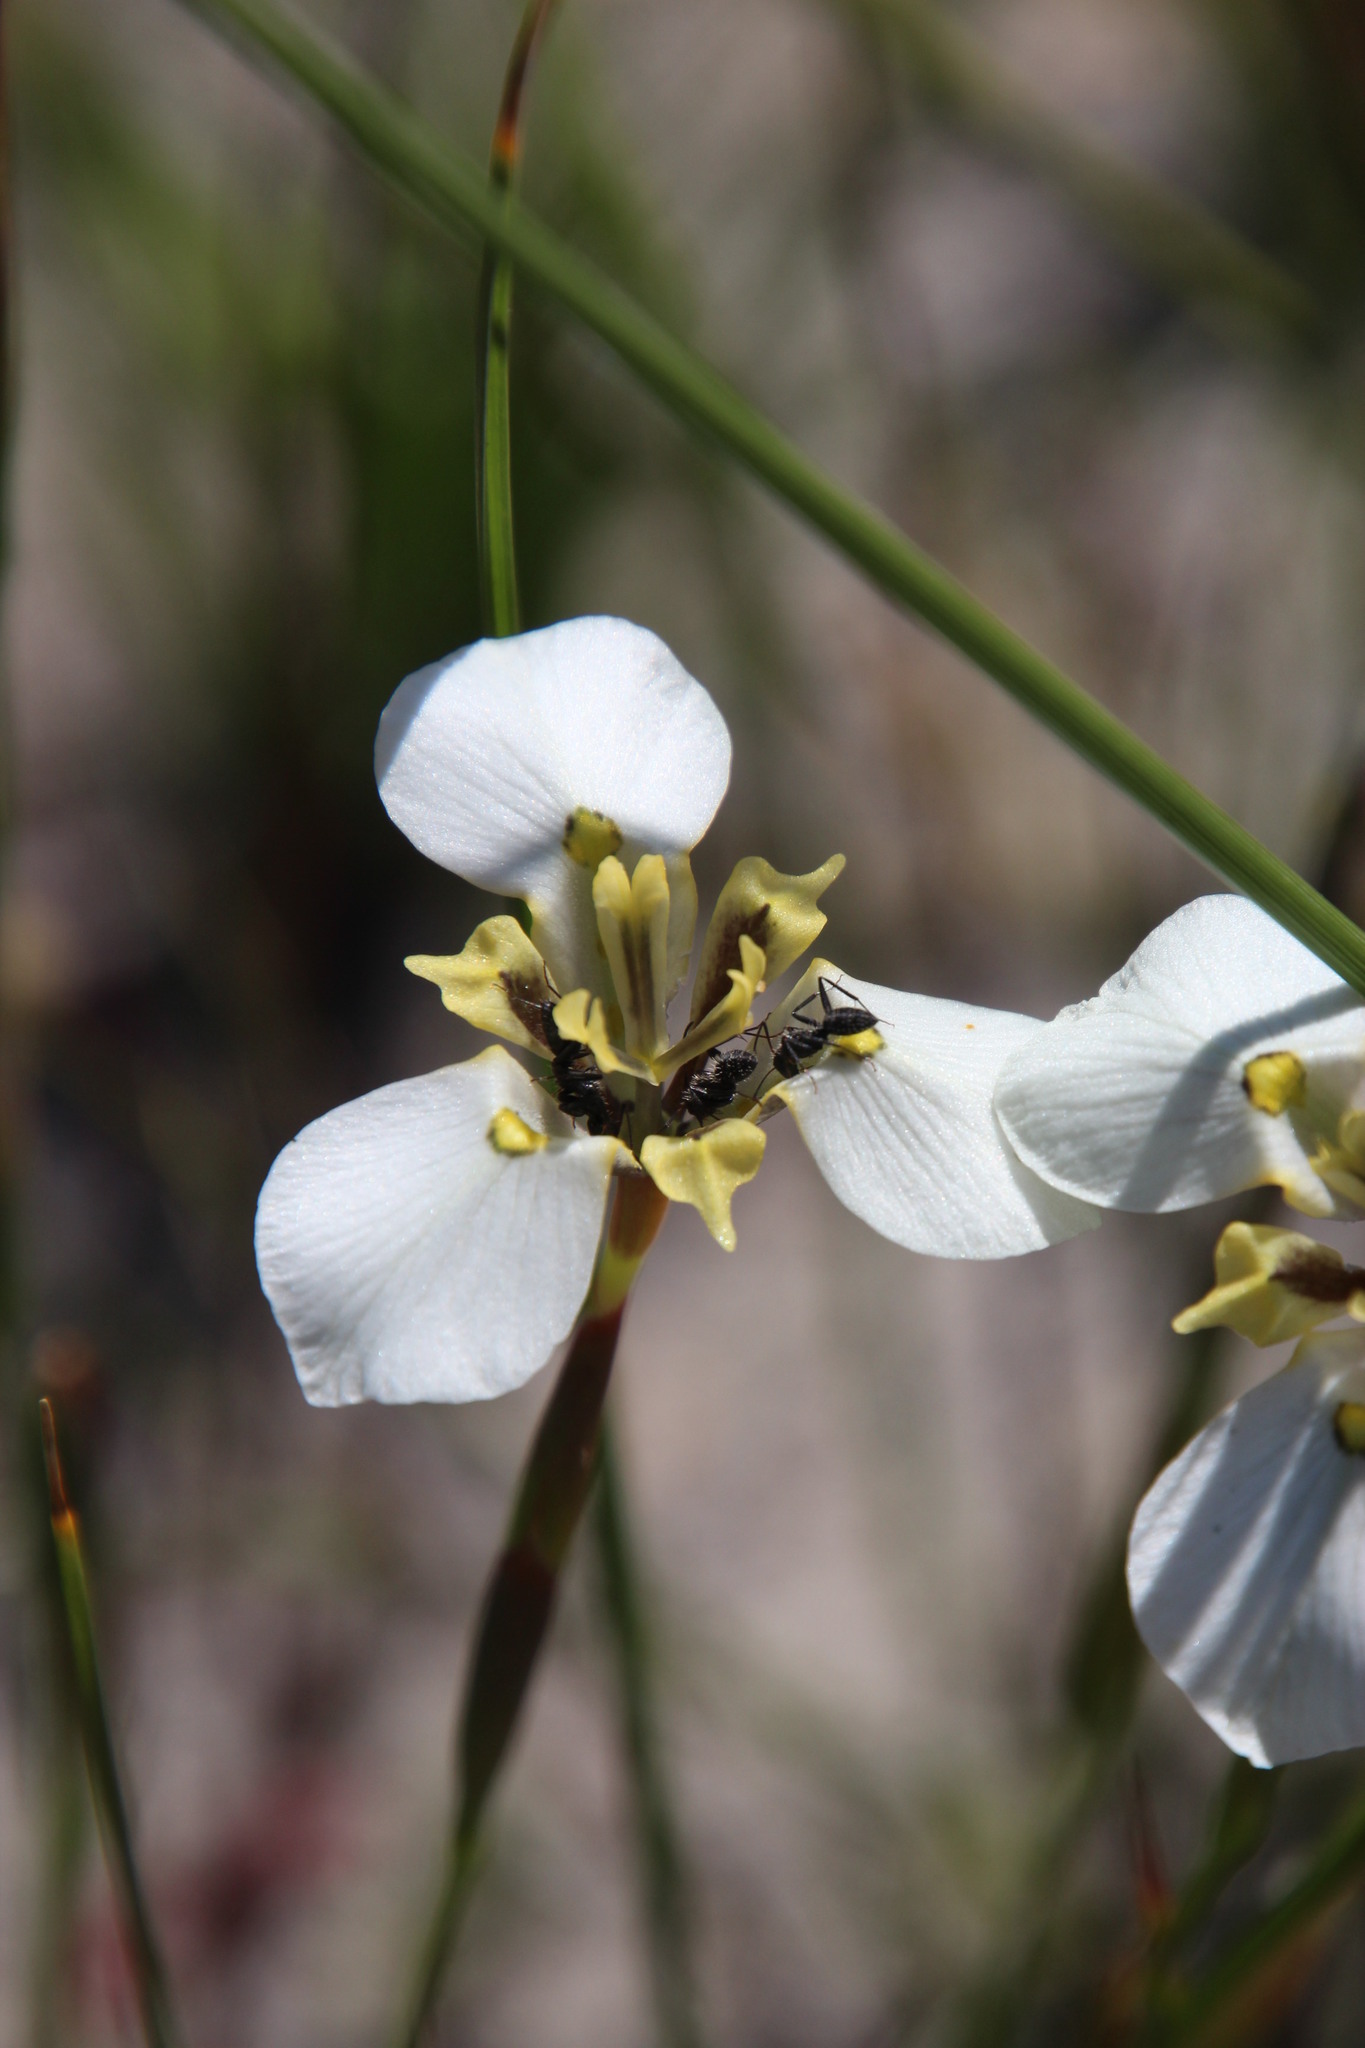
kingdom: Animalia
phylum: Arthropoda
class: Insecta
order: Hymenoptera
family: Formicidae
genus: Camponotus
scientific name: Camponotus niveosetosus
